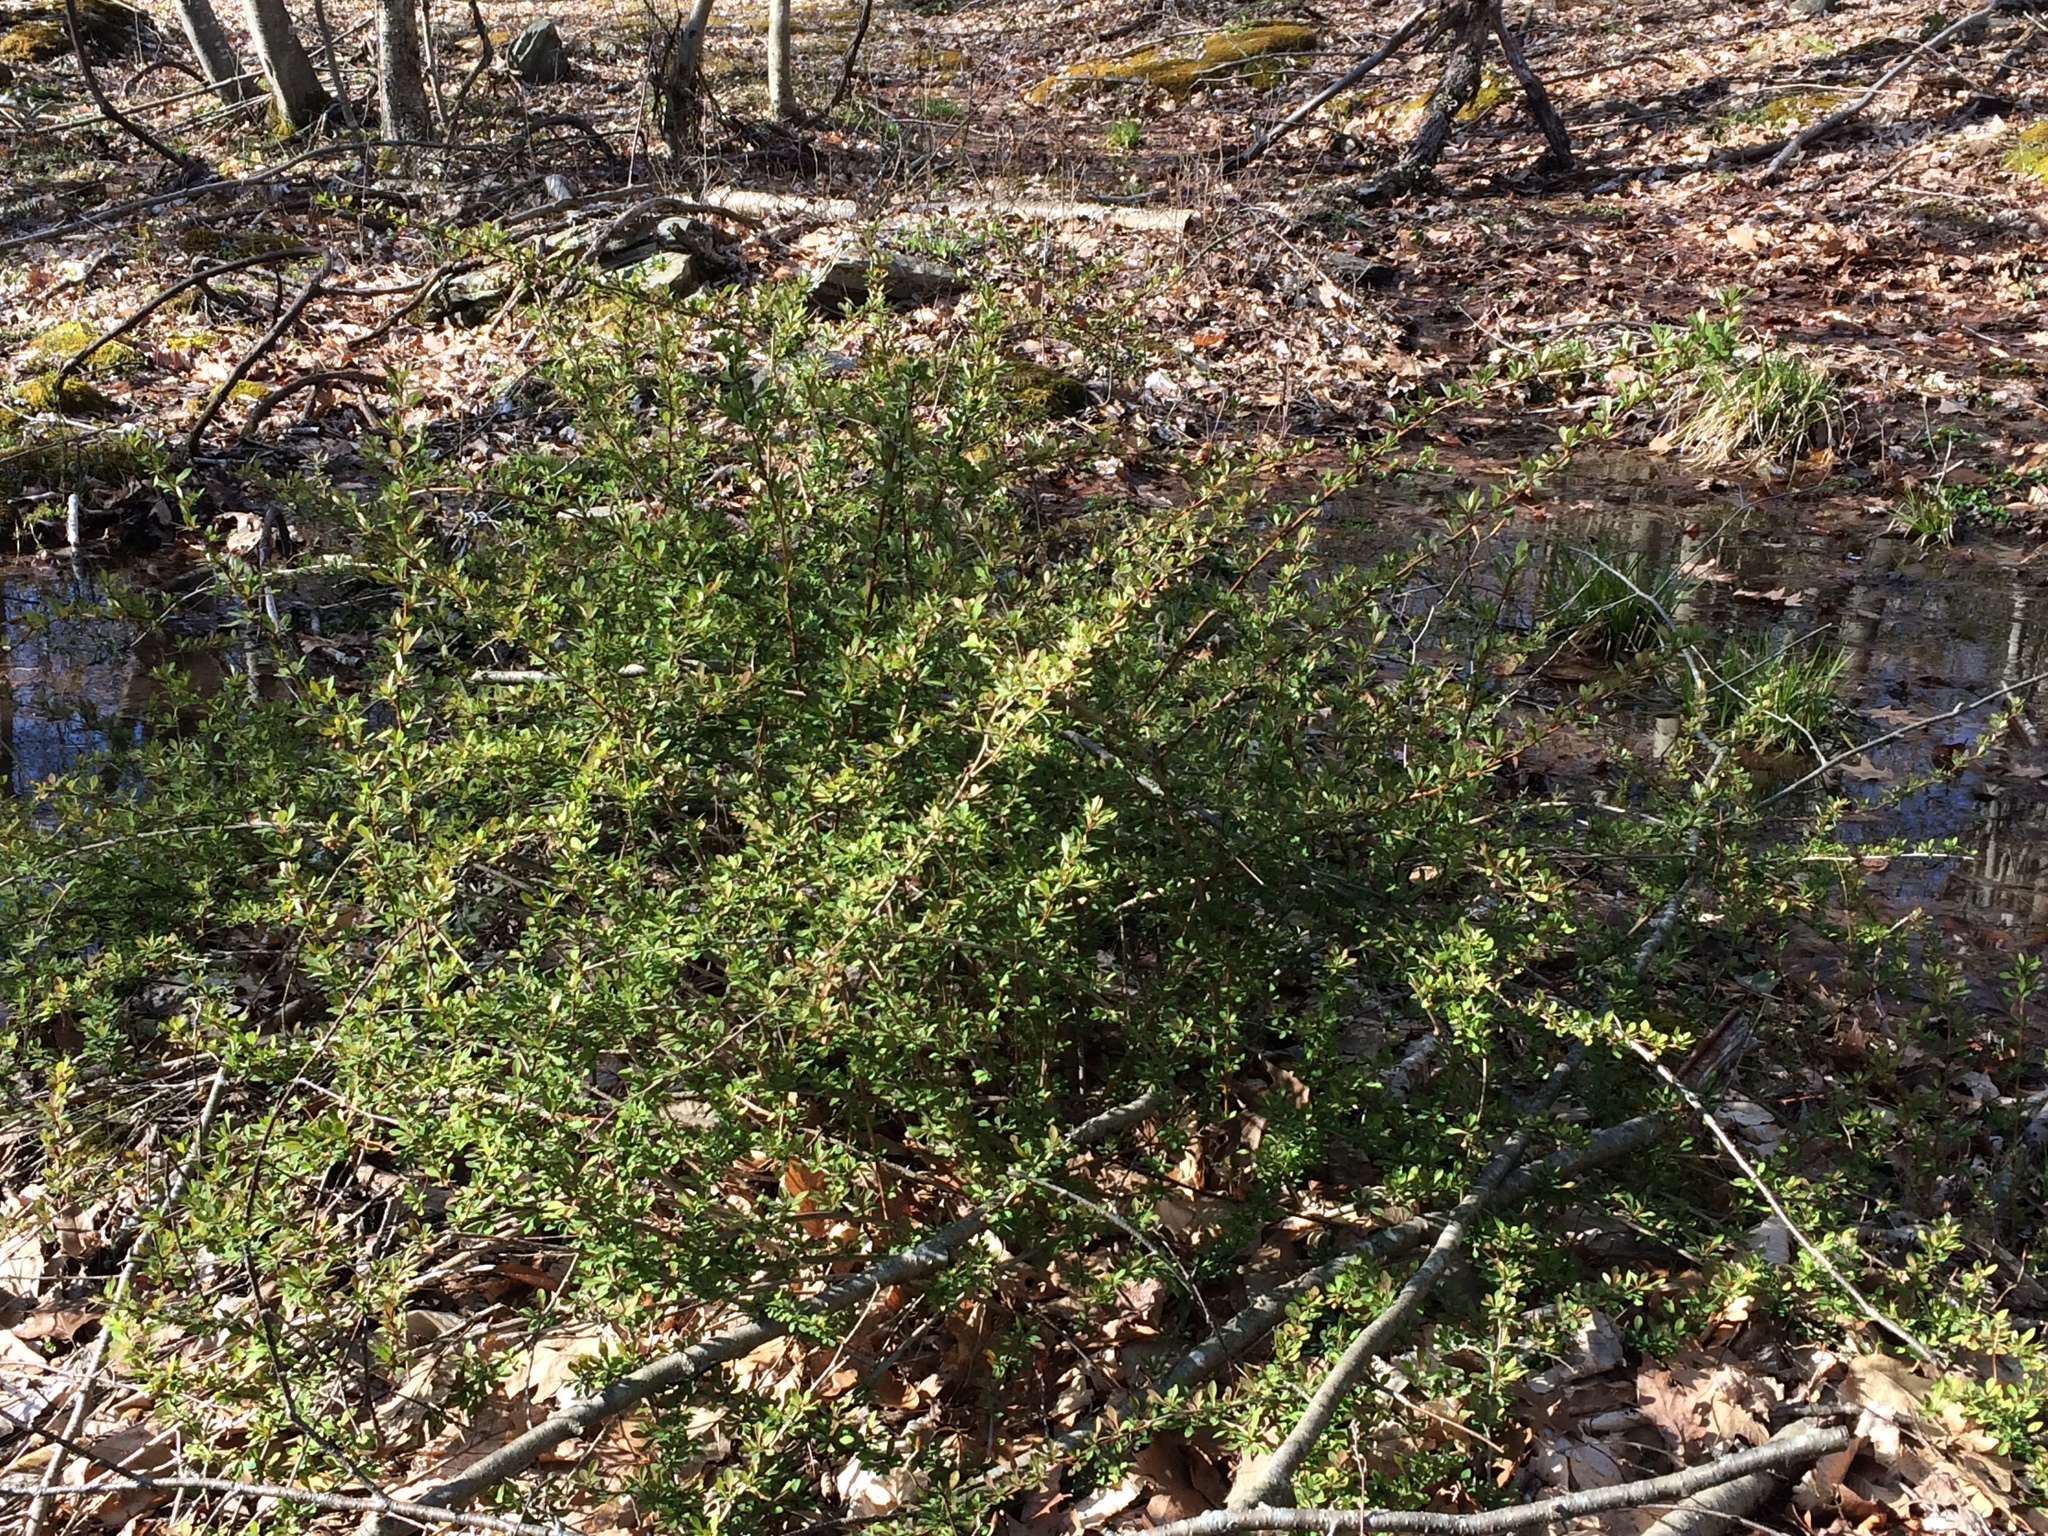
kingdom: Plantae
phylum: Tracheophyta
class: Magnoliopsida
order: Ranunculales
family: Berberidaceae
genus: Berberis
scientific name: Berberis thunbergii
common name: Japanese barberry
